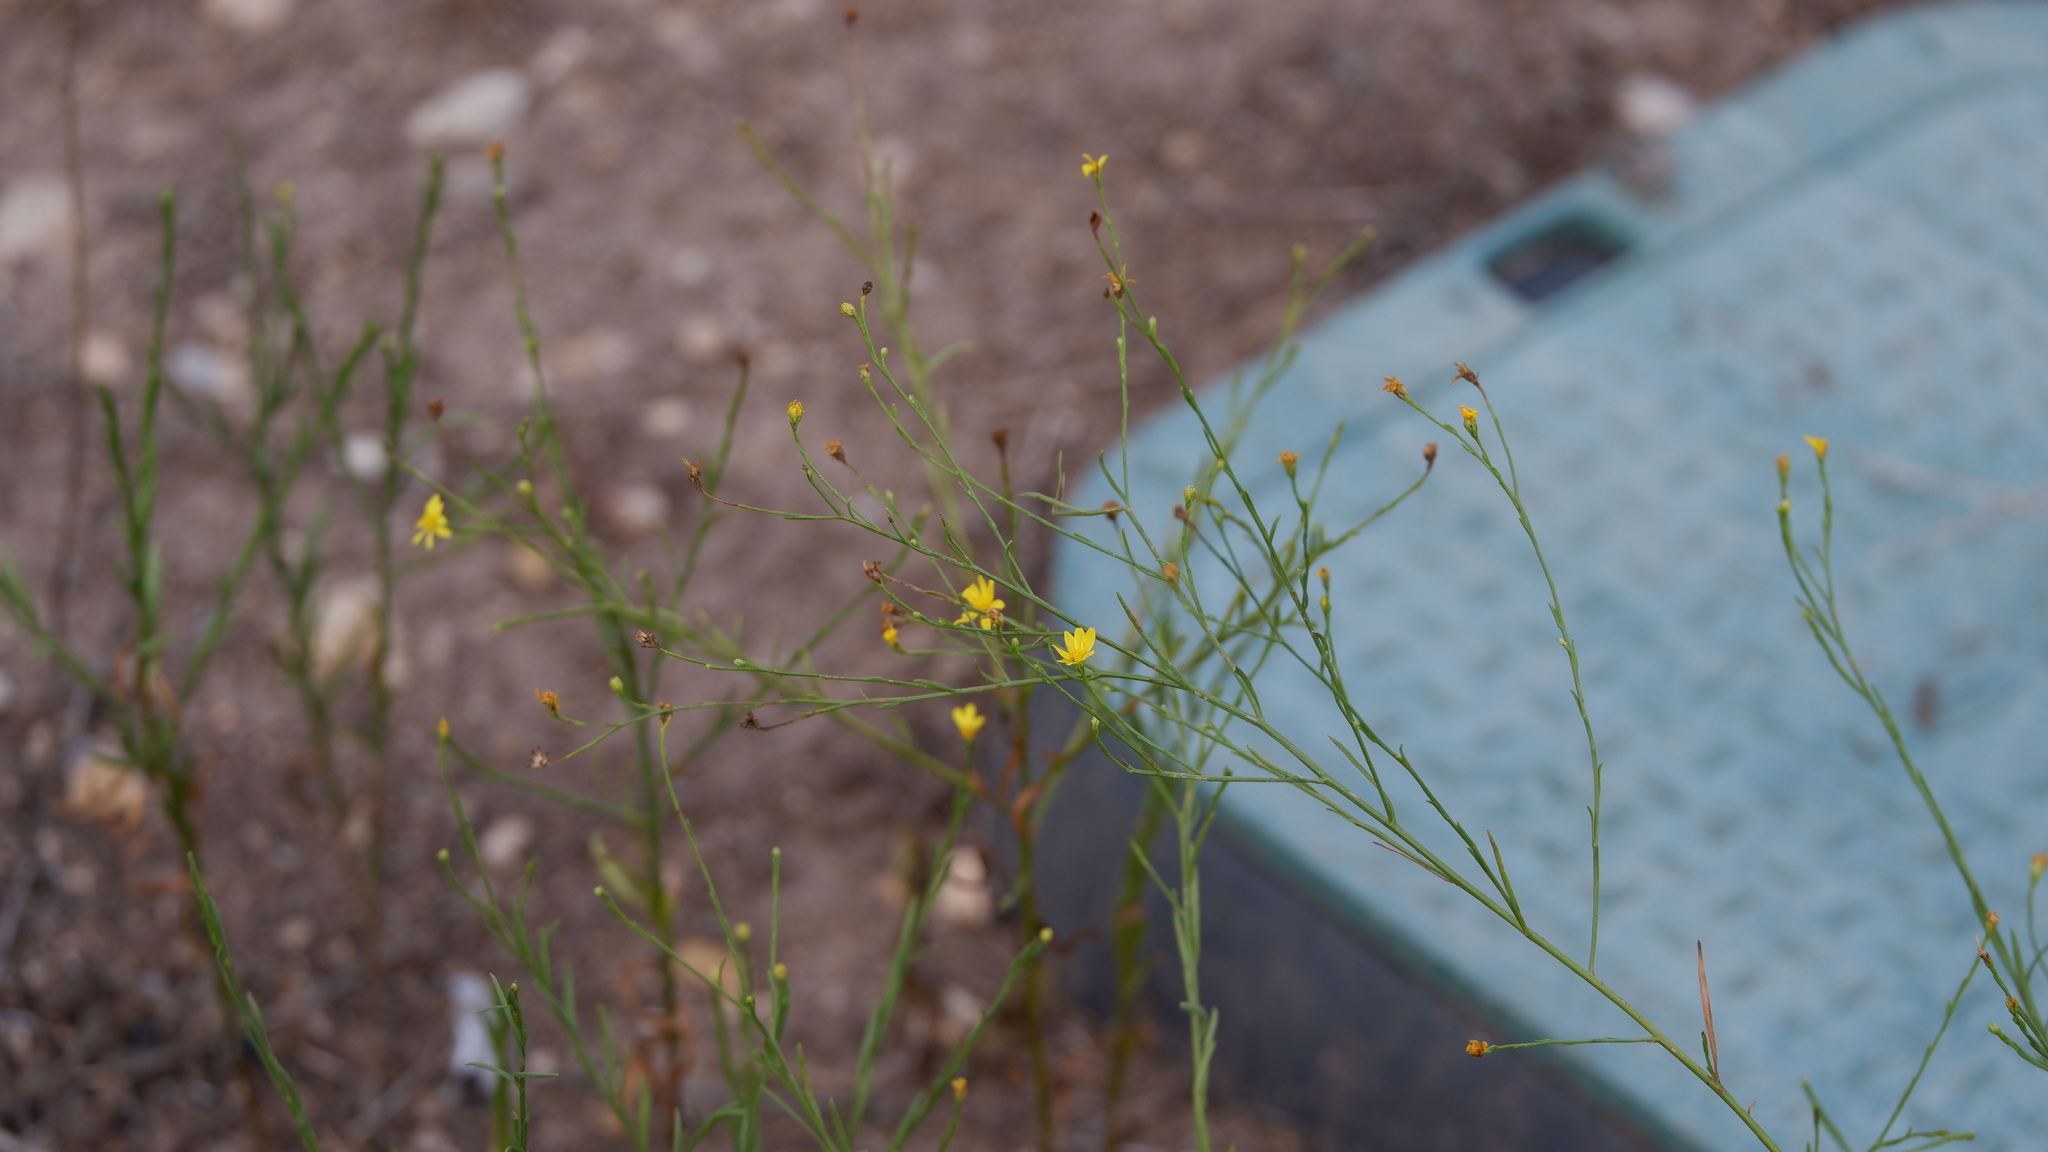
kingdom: Plantae
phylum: Tracheophyta
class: Magnoliopsida
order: Asterales
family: Asteraceae
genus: Gutierrezia
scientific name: Gutierrezia texana
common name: Texas snakeweed
